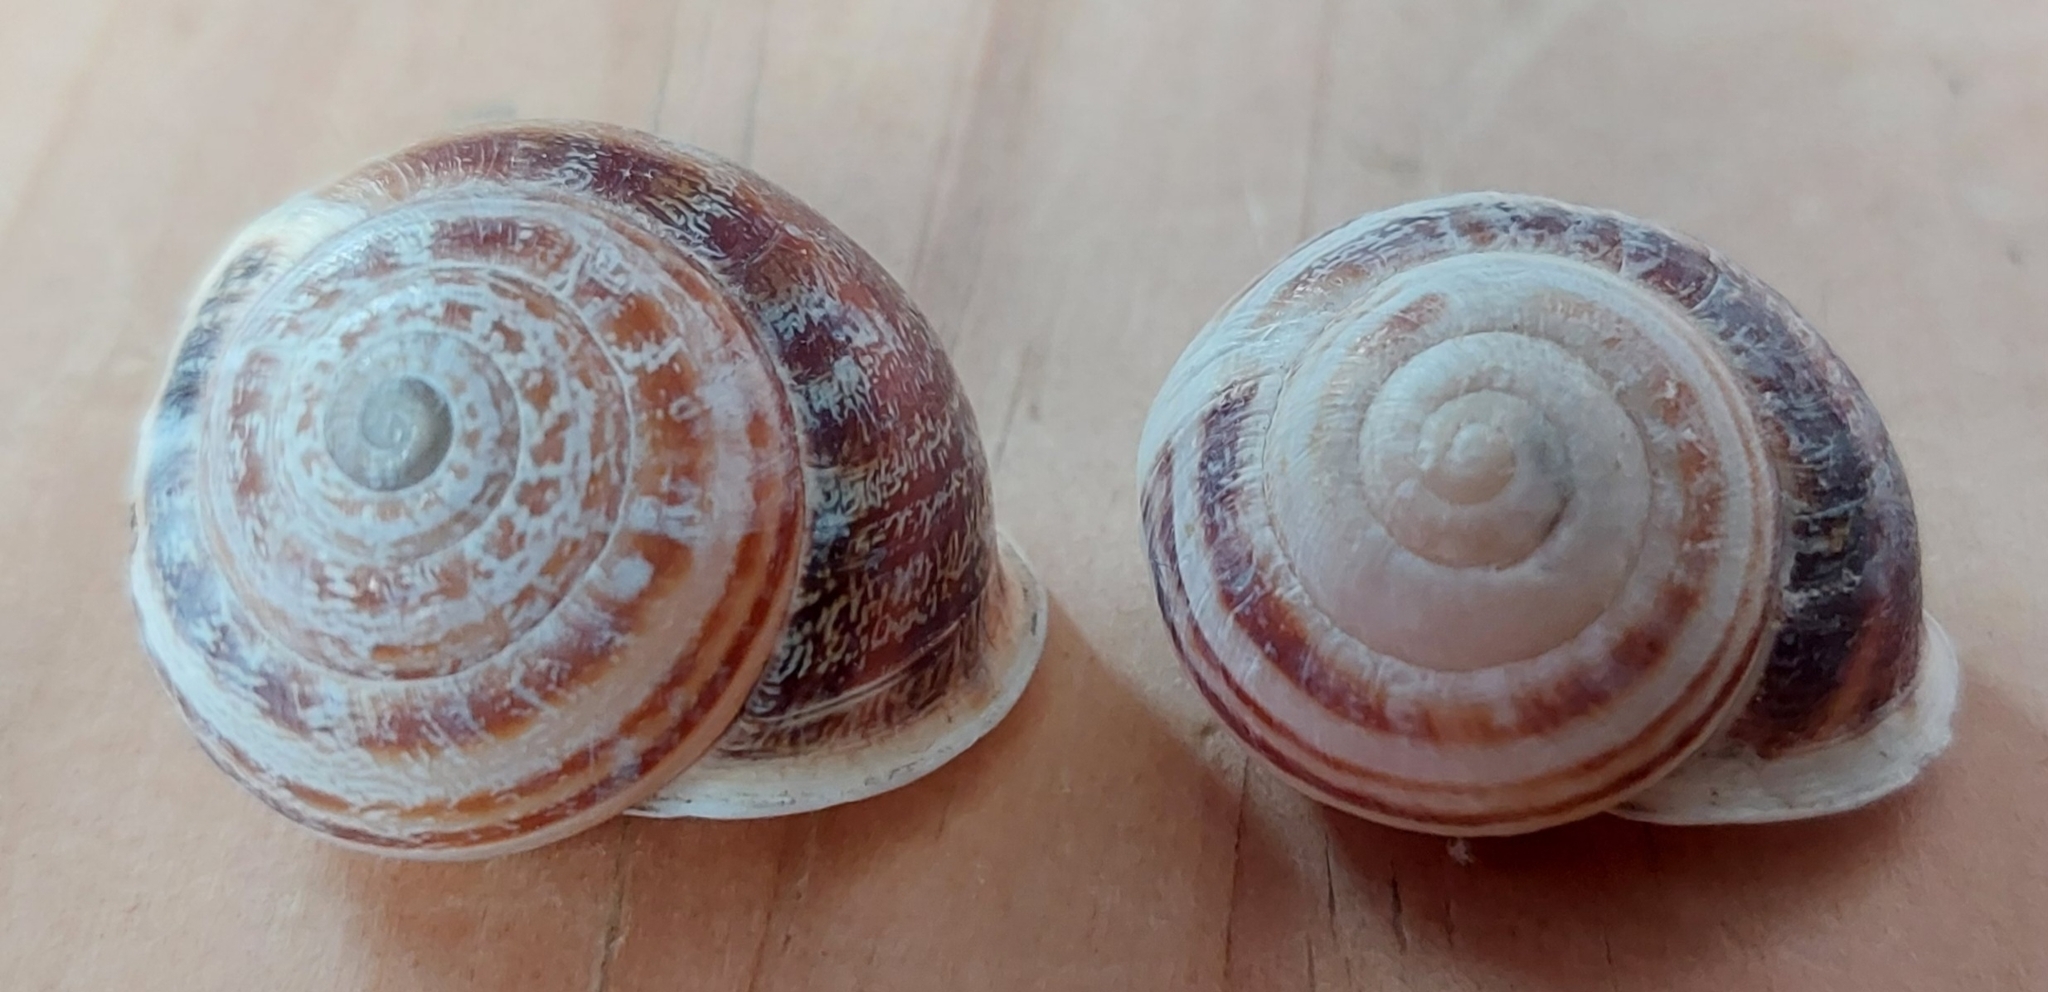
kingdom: Animalia
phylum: Mollusca
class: Gastropoda
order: Stylommatophora
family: Helicidae
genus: Eobania
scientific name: Eobania vermiculata
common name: Chocolateband snail
